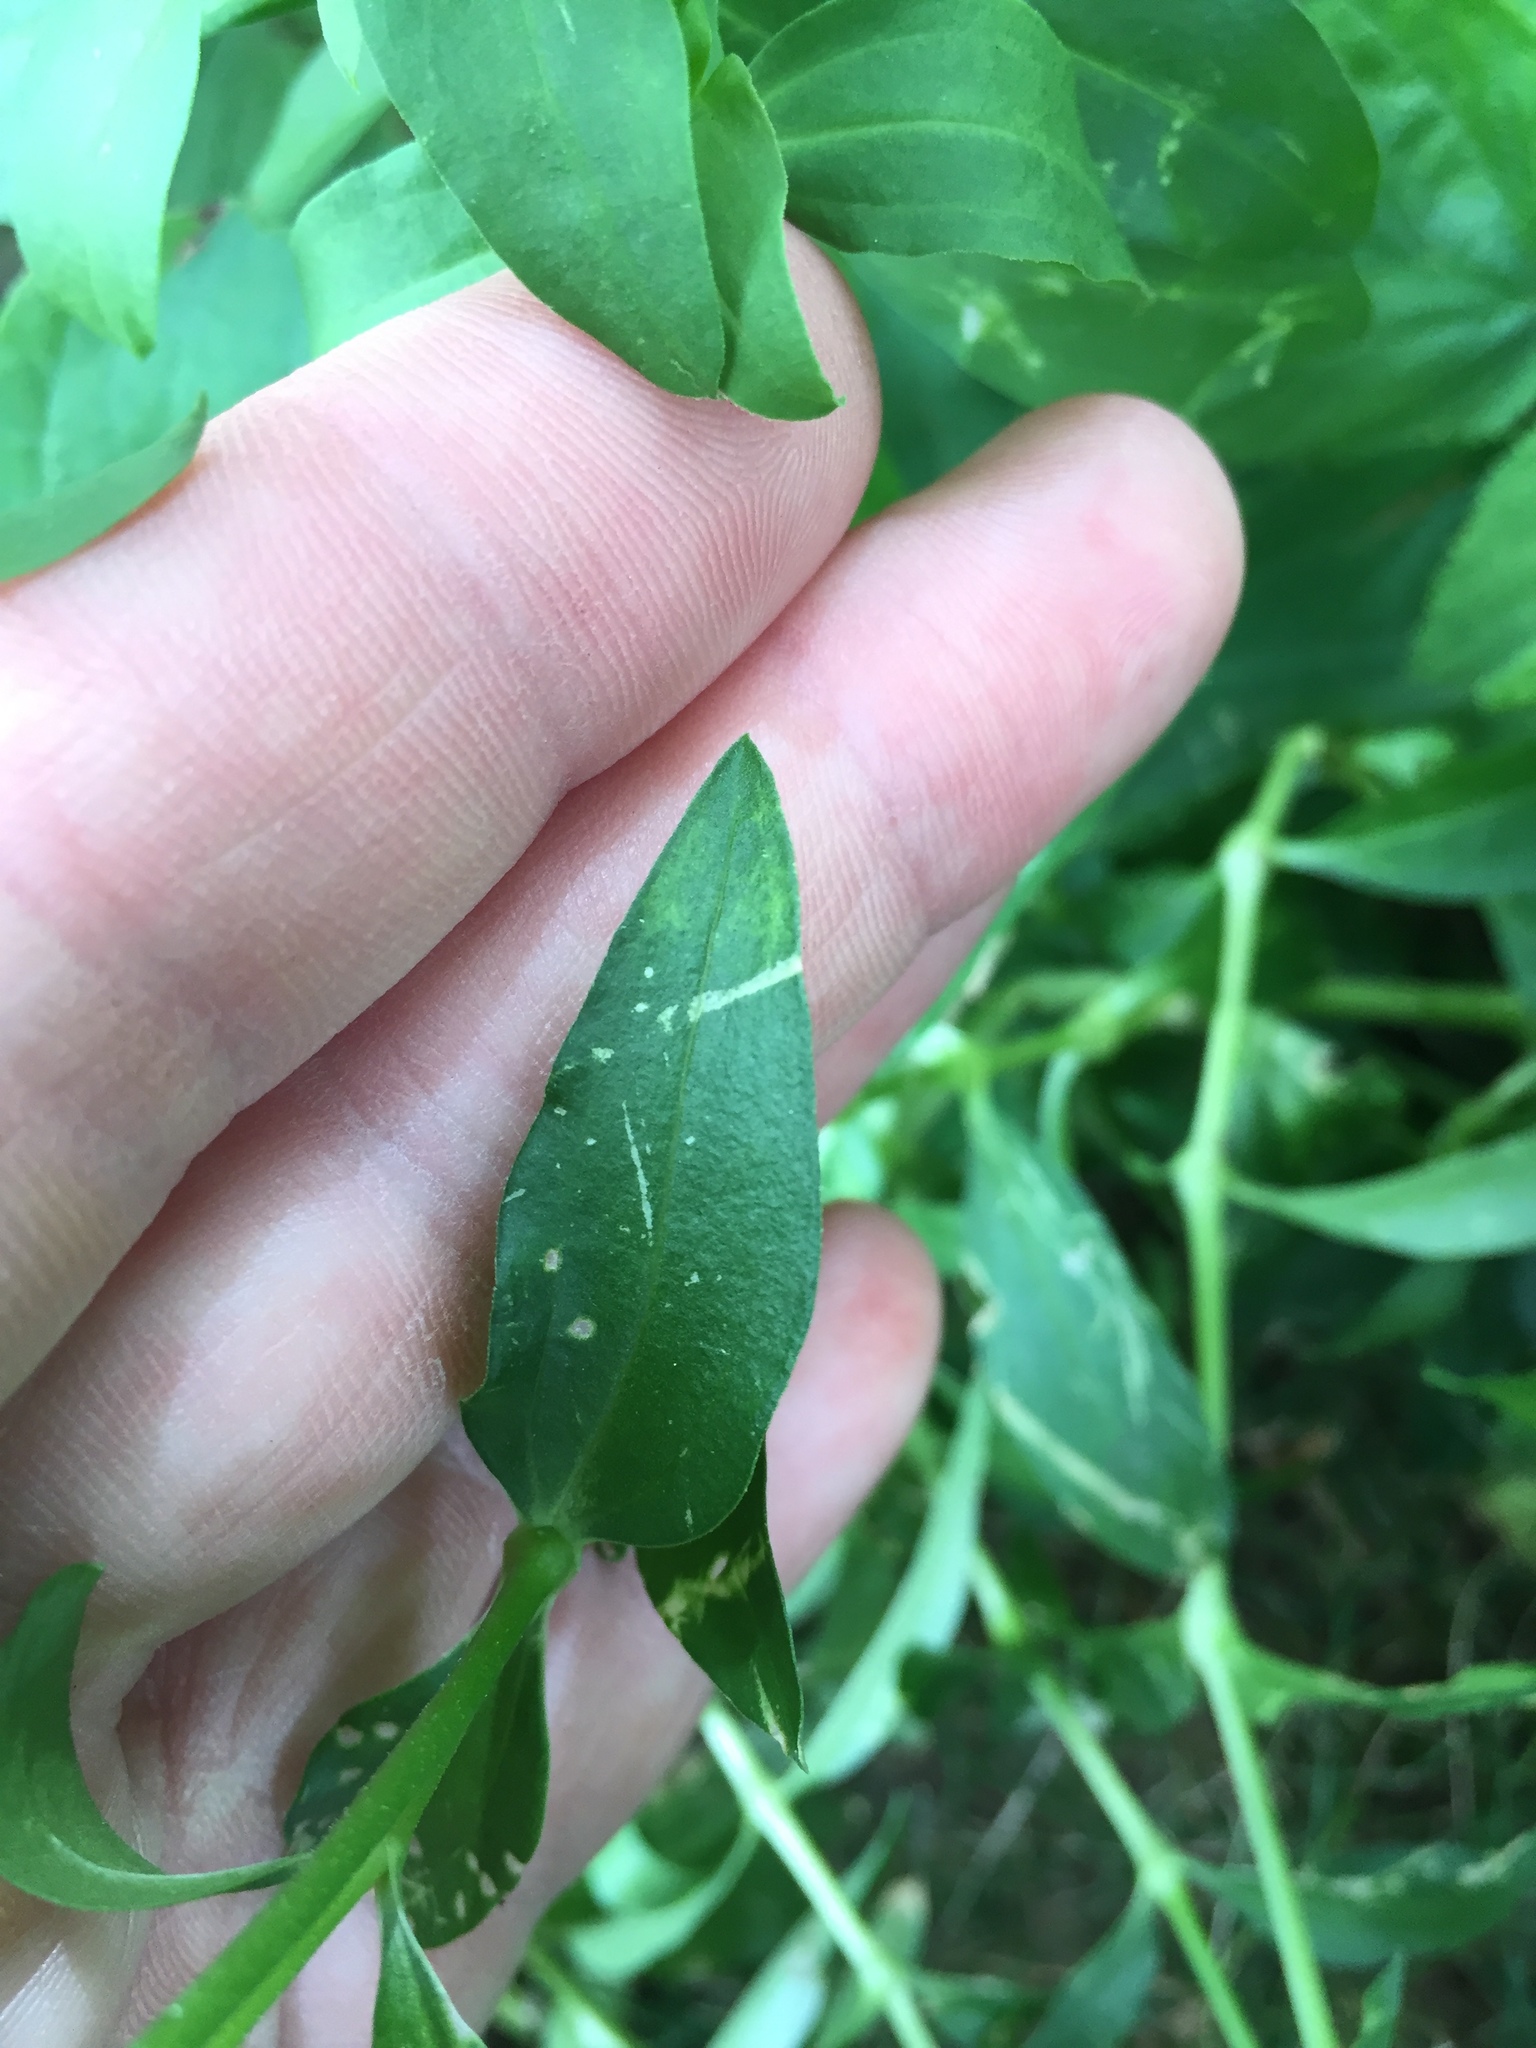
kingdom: Plantae
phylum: Tracheophyta
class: Magnoliopsida
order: Caryophyllales
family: Caryophyllaceae
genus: Saponaria
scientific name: Saponaria officinalis
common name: Soapwort
